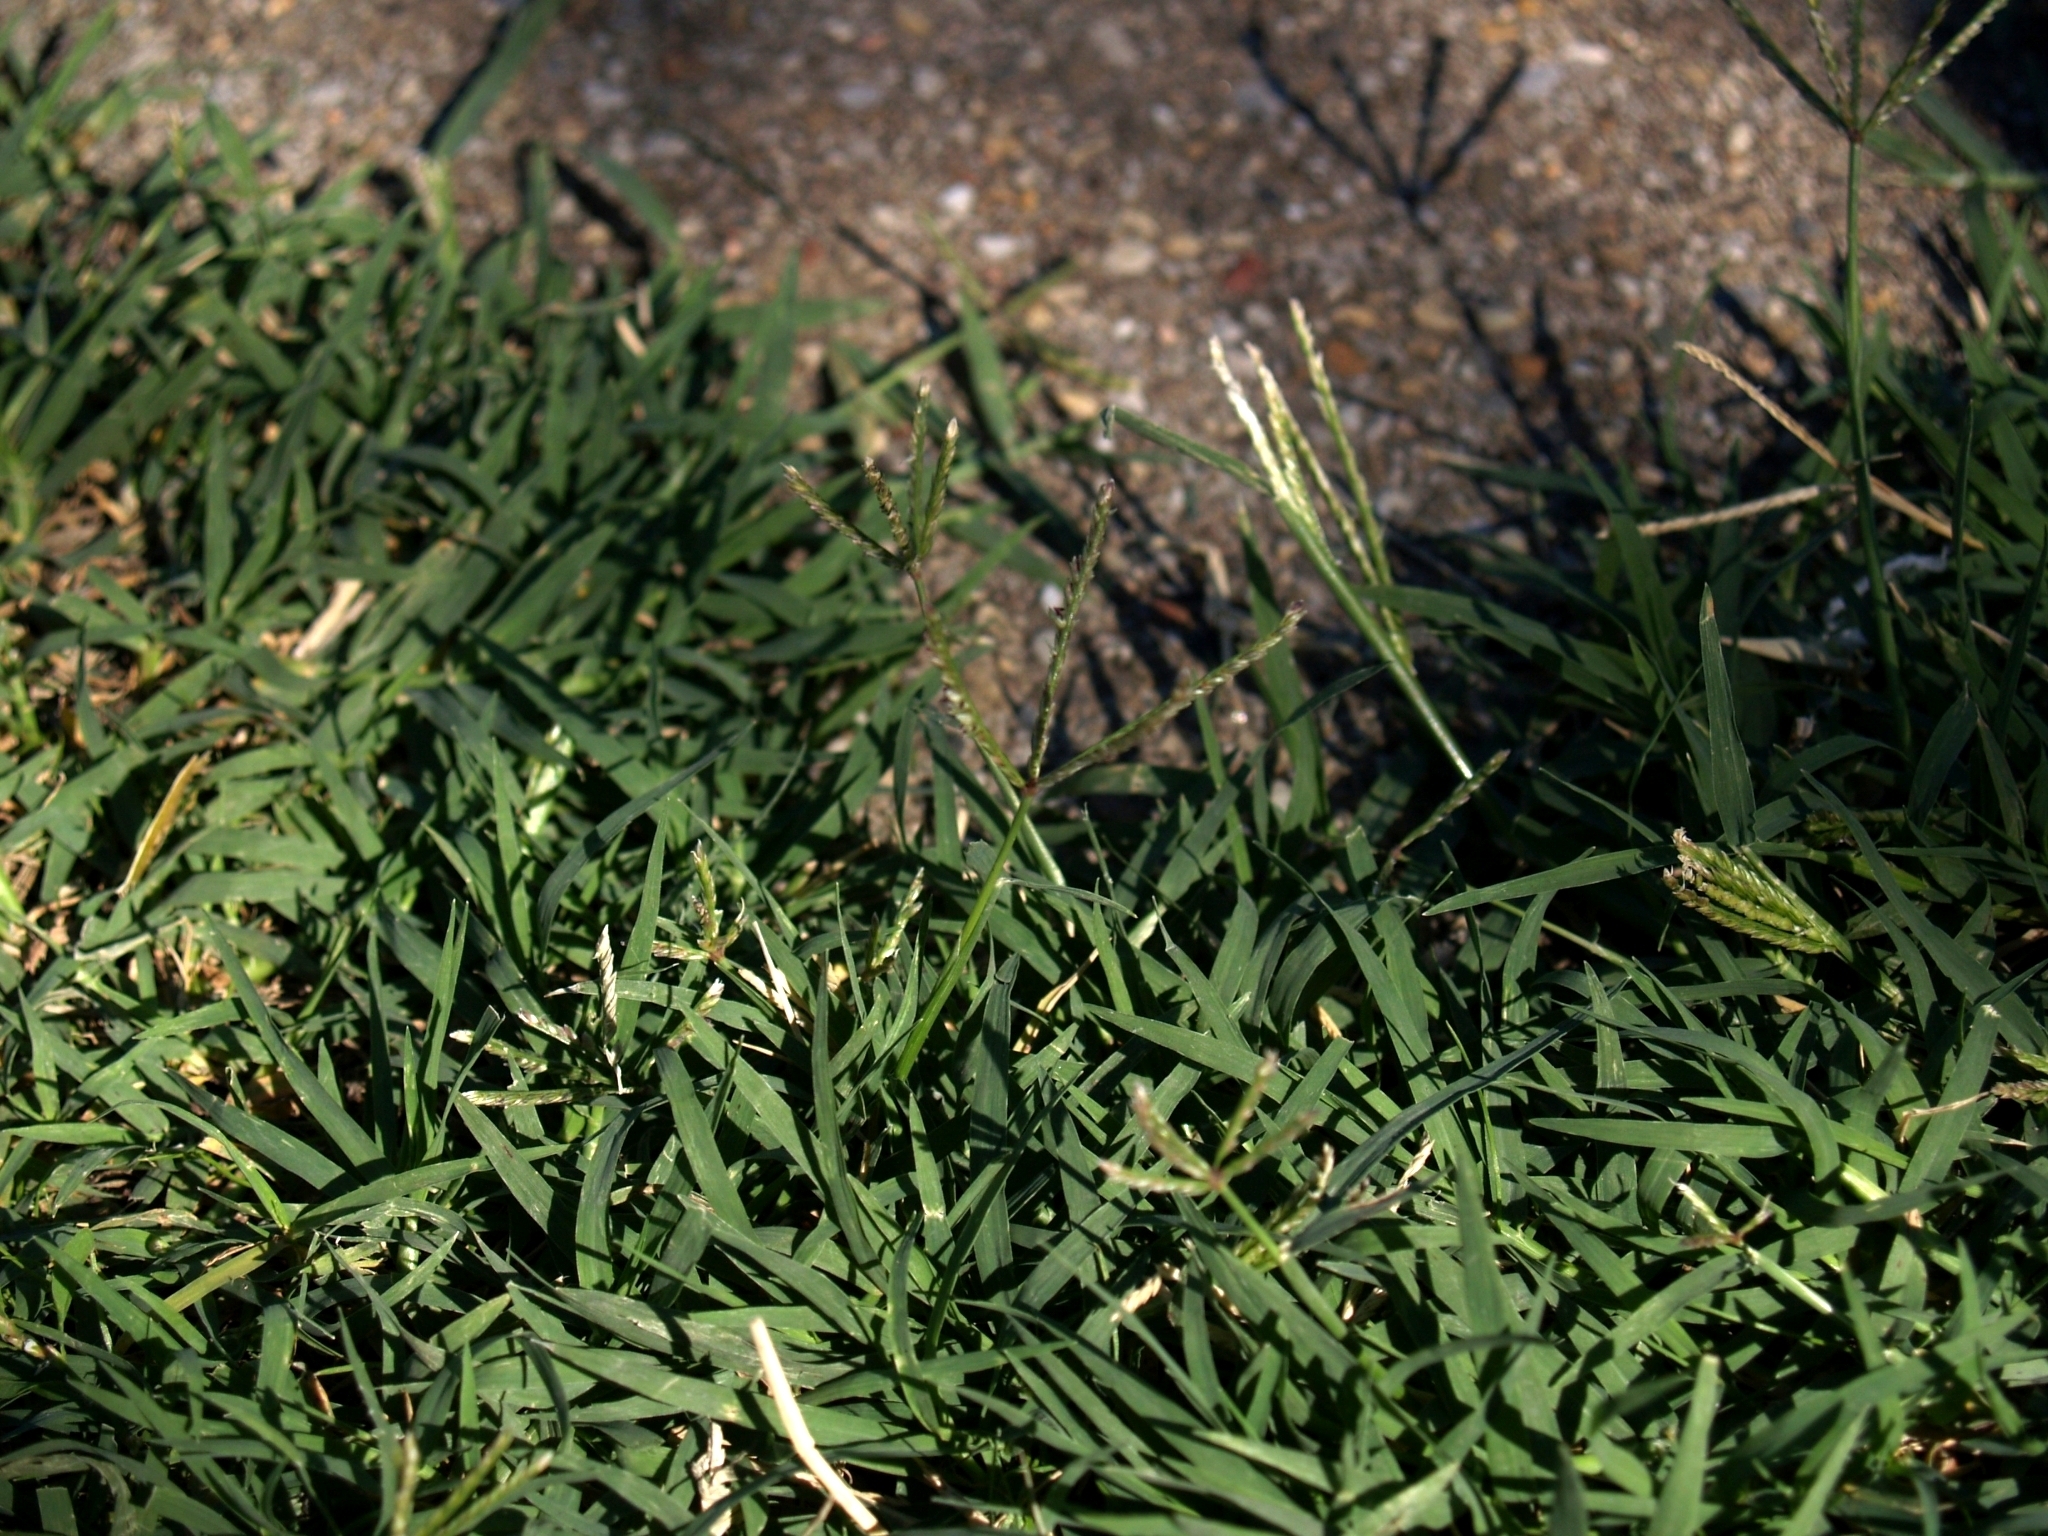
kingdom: Plantae
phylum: Tracheophyta
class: Liliopsida
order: Poales
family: Poaceae
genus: Cynodon
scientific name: Cynodon dactylon
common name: Bermuda grass
